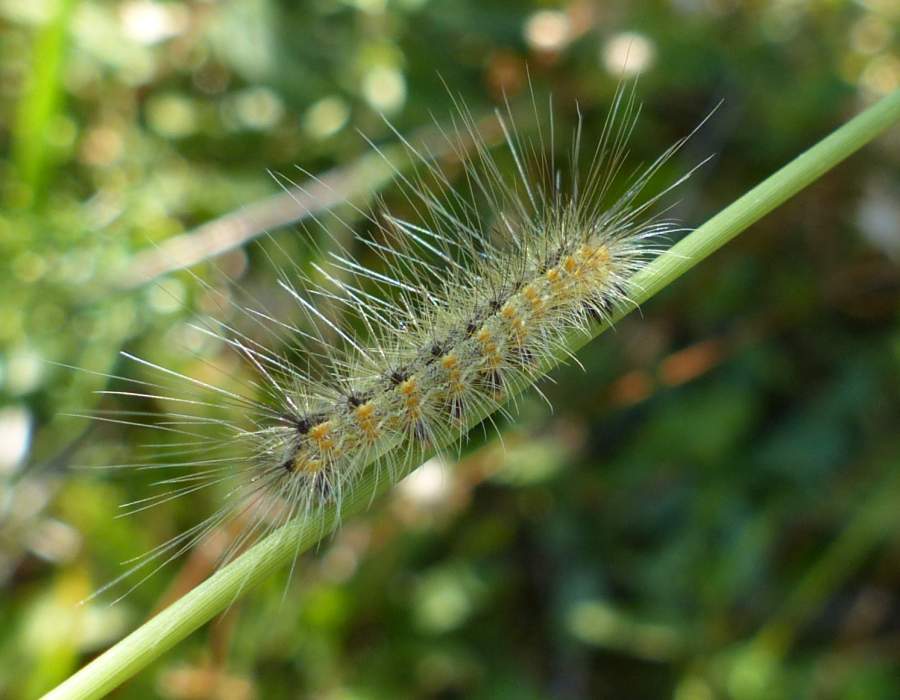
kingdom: Animalia
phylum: Arthropoda
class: Insecta
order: Lepidoptera
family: Erebidae
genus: Hyphantria
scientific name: Hyphantria cunea
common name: American white moth
